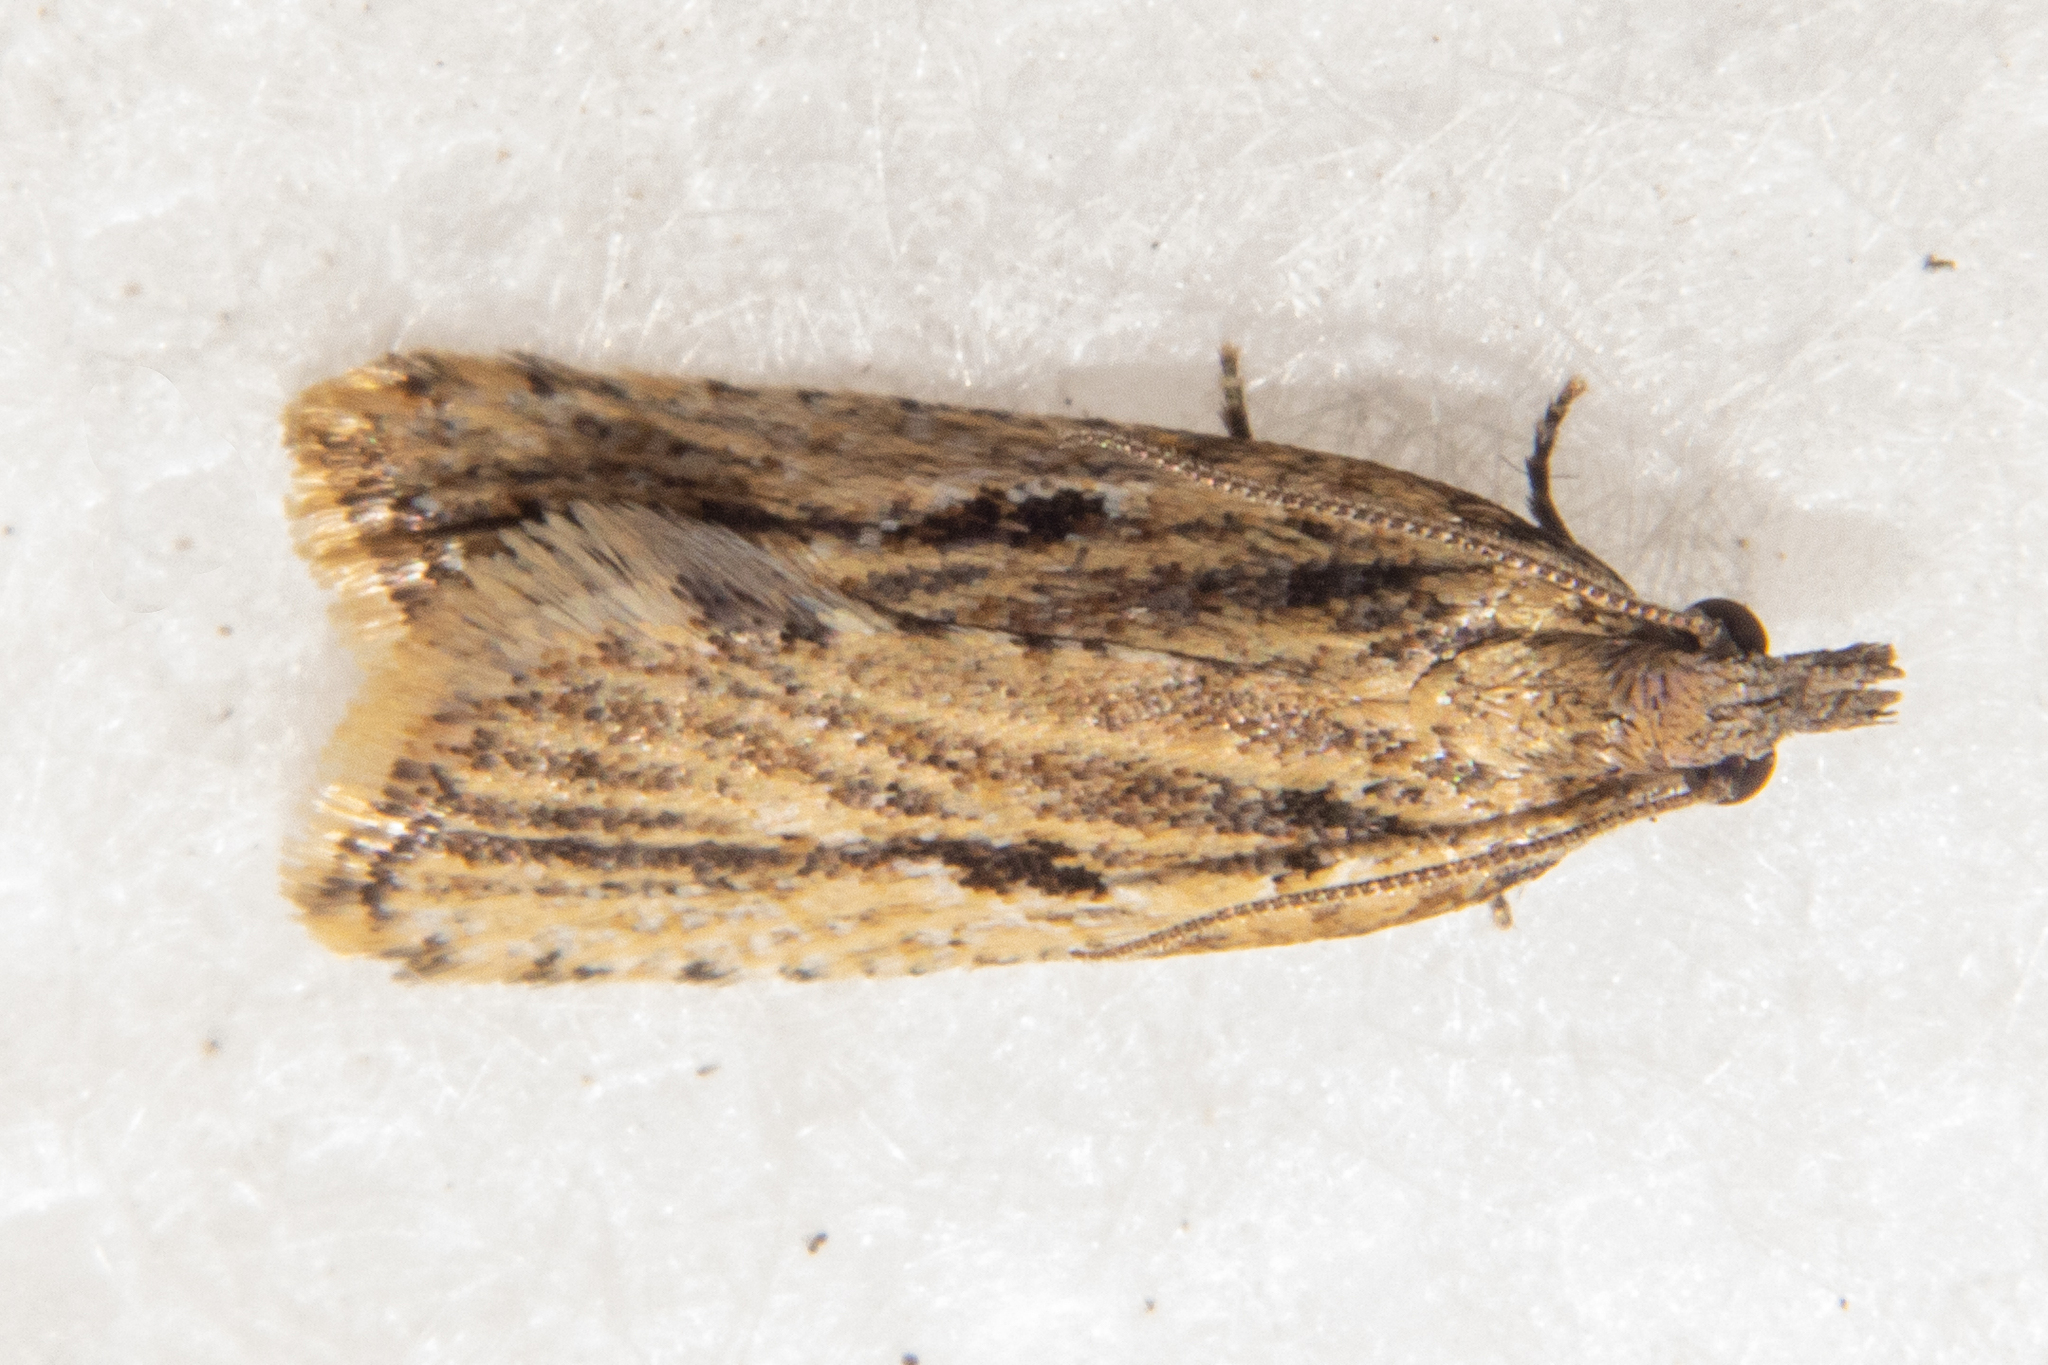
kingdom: Animalia
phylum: Arthropoda
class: Insecta
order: Lepidoptera
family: Tortricidae
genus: Capua
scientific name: Capua semiferana
